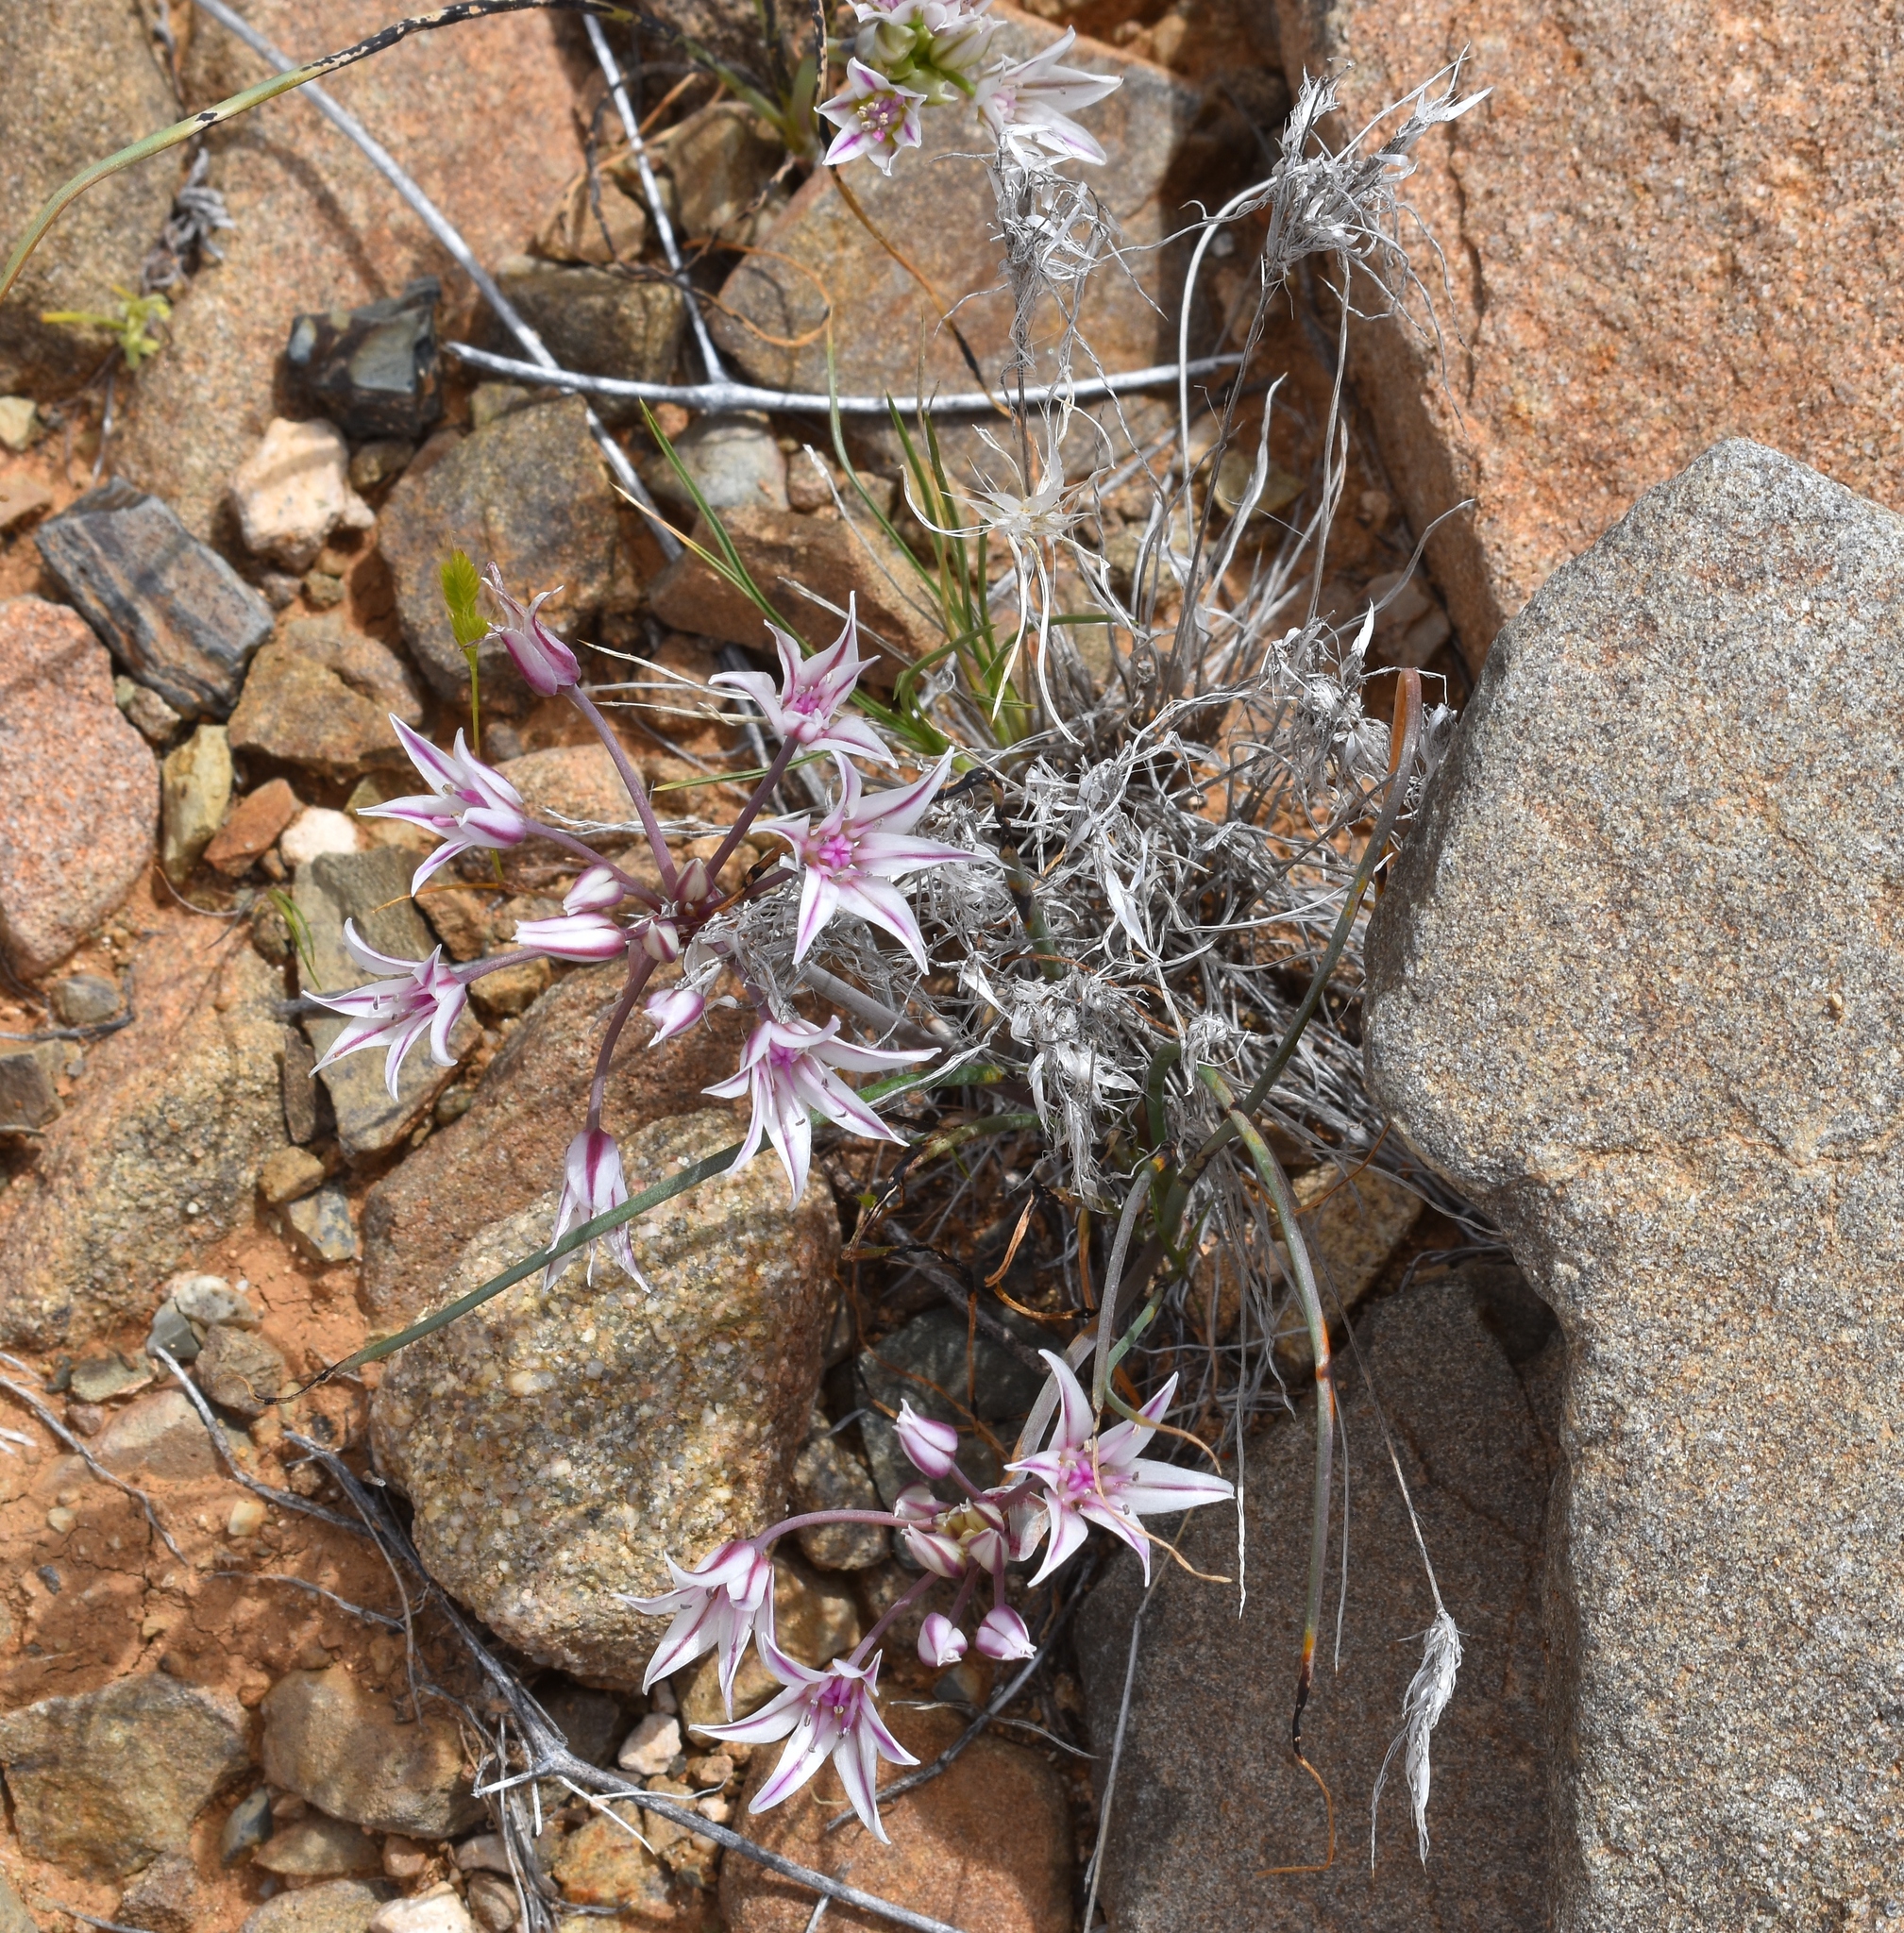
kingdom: Plantae
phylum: Tracheophyta
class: Liliopsida
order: Asparagales
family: Amaryllidaceae
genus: Allium
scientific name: Allium macropetalum
